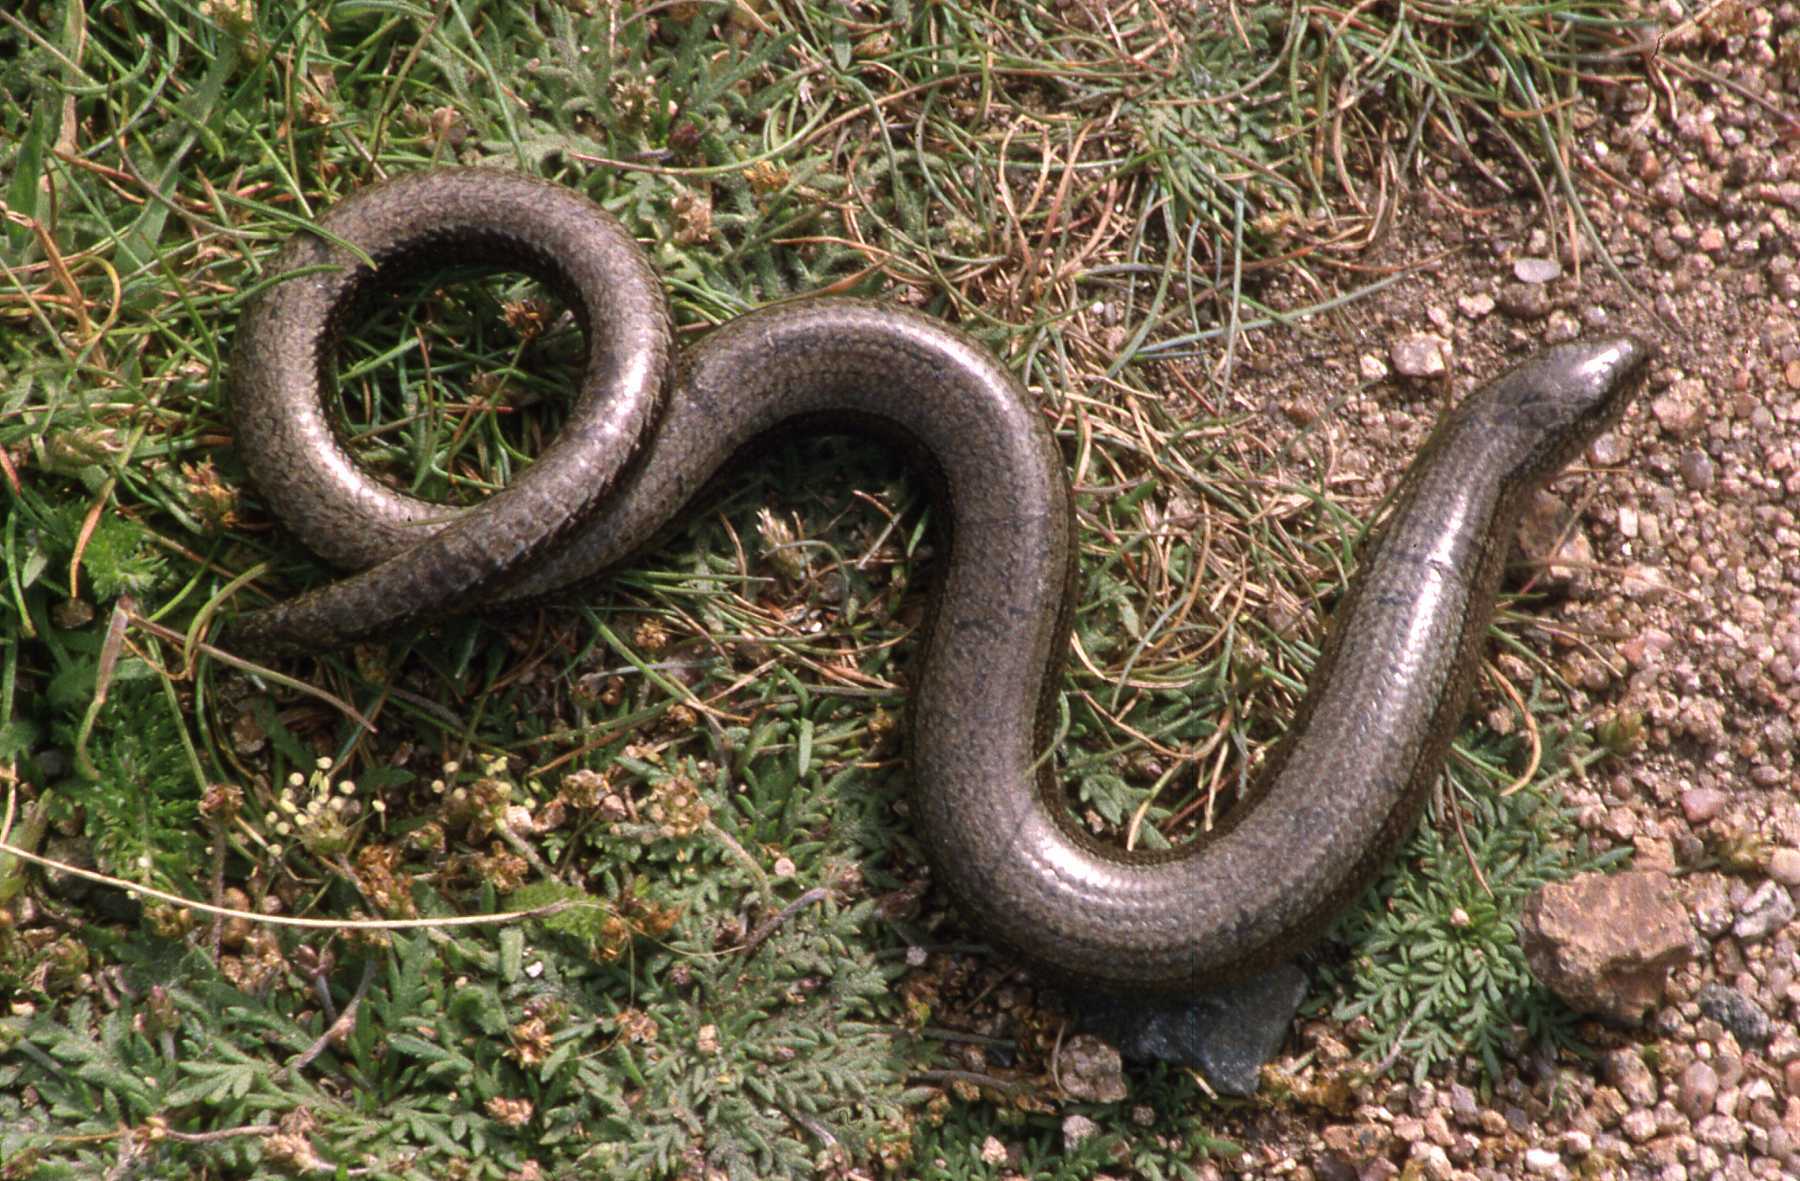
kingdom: Animalia
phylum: Chordata
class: Squamata
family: Anguidae
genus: Anguis
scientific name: Anguis fragilis
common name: Slow worm
